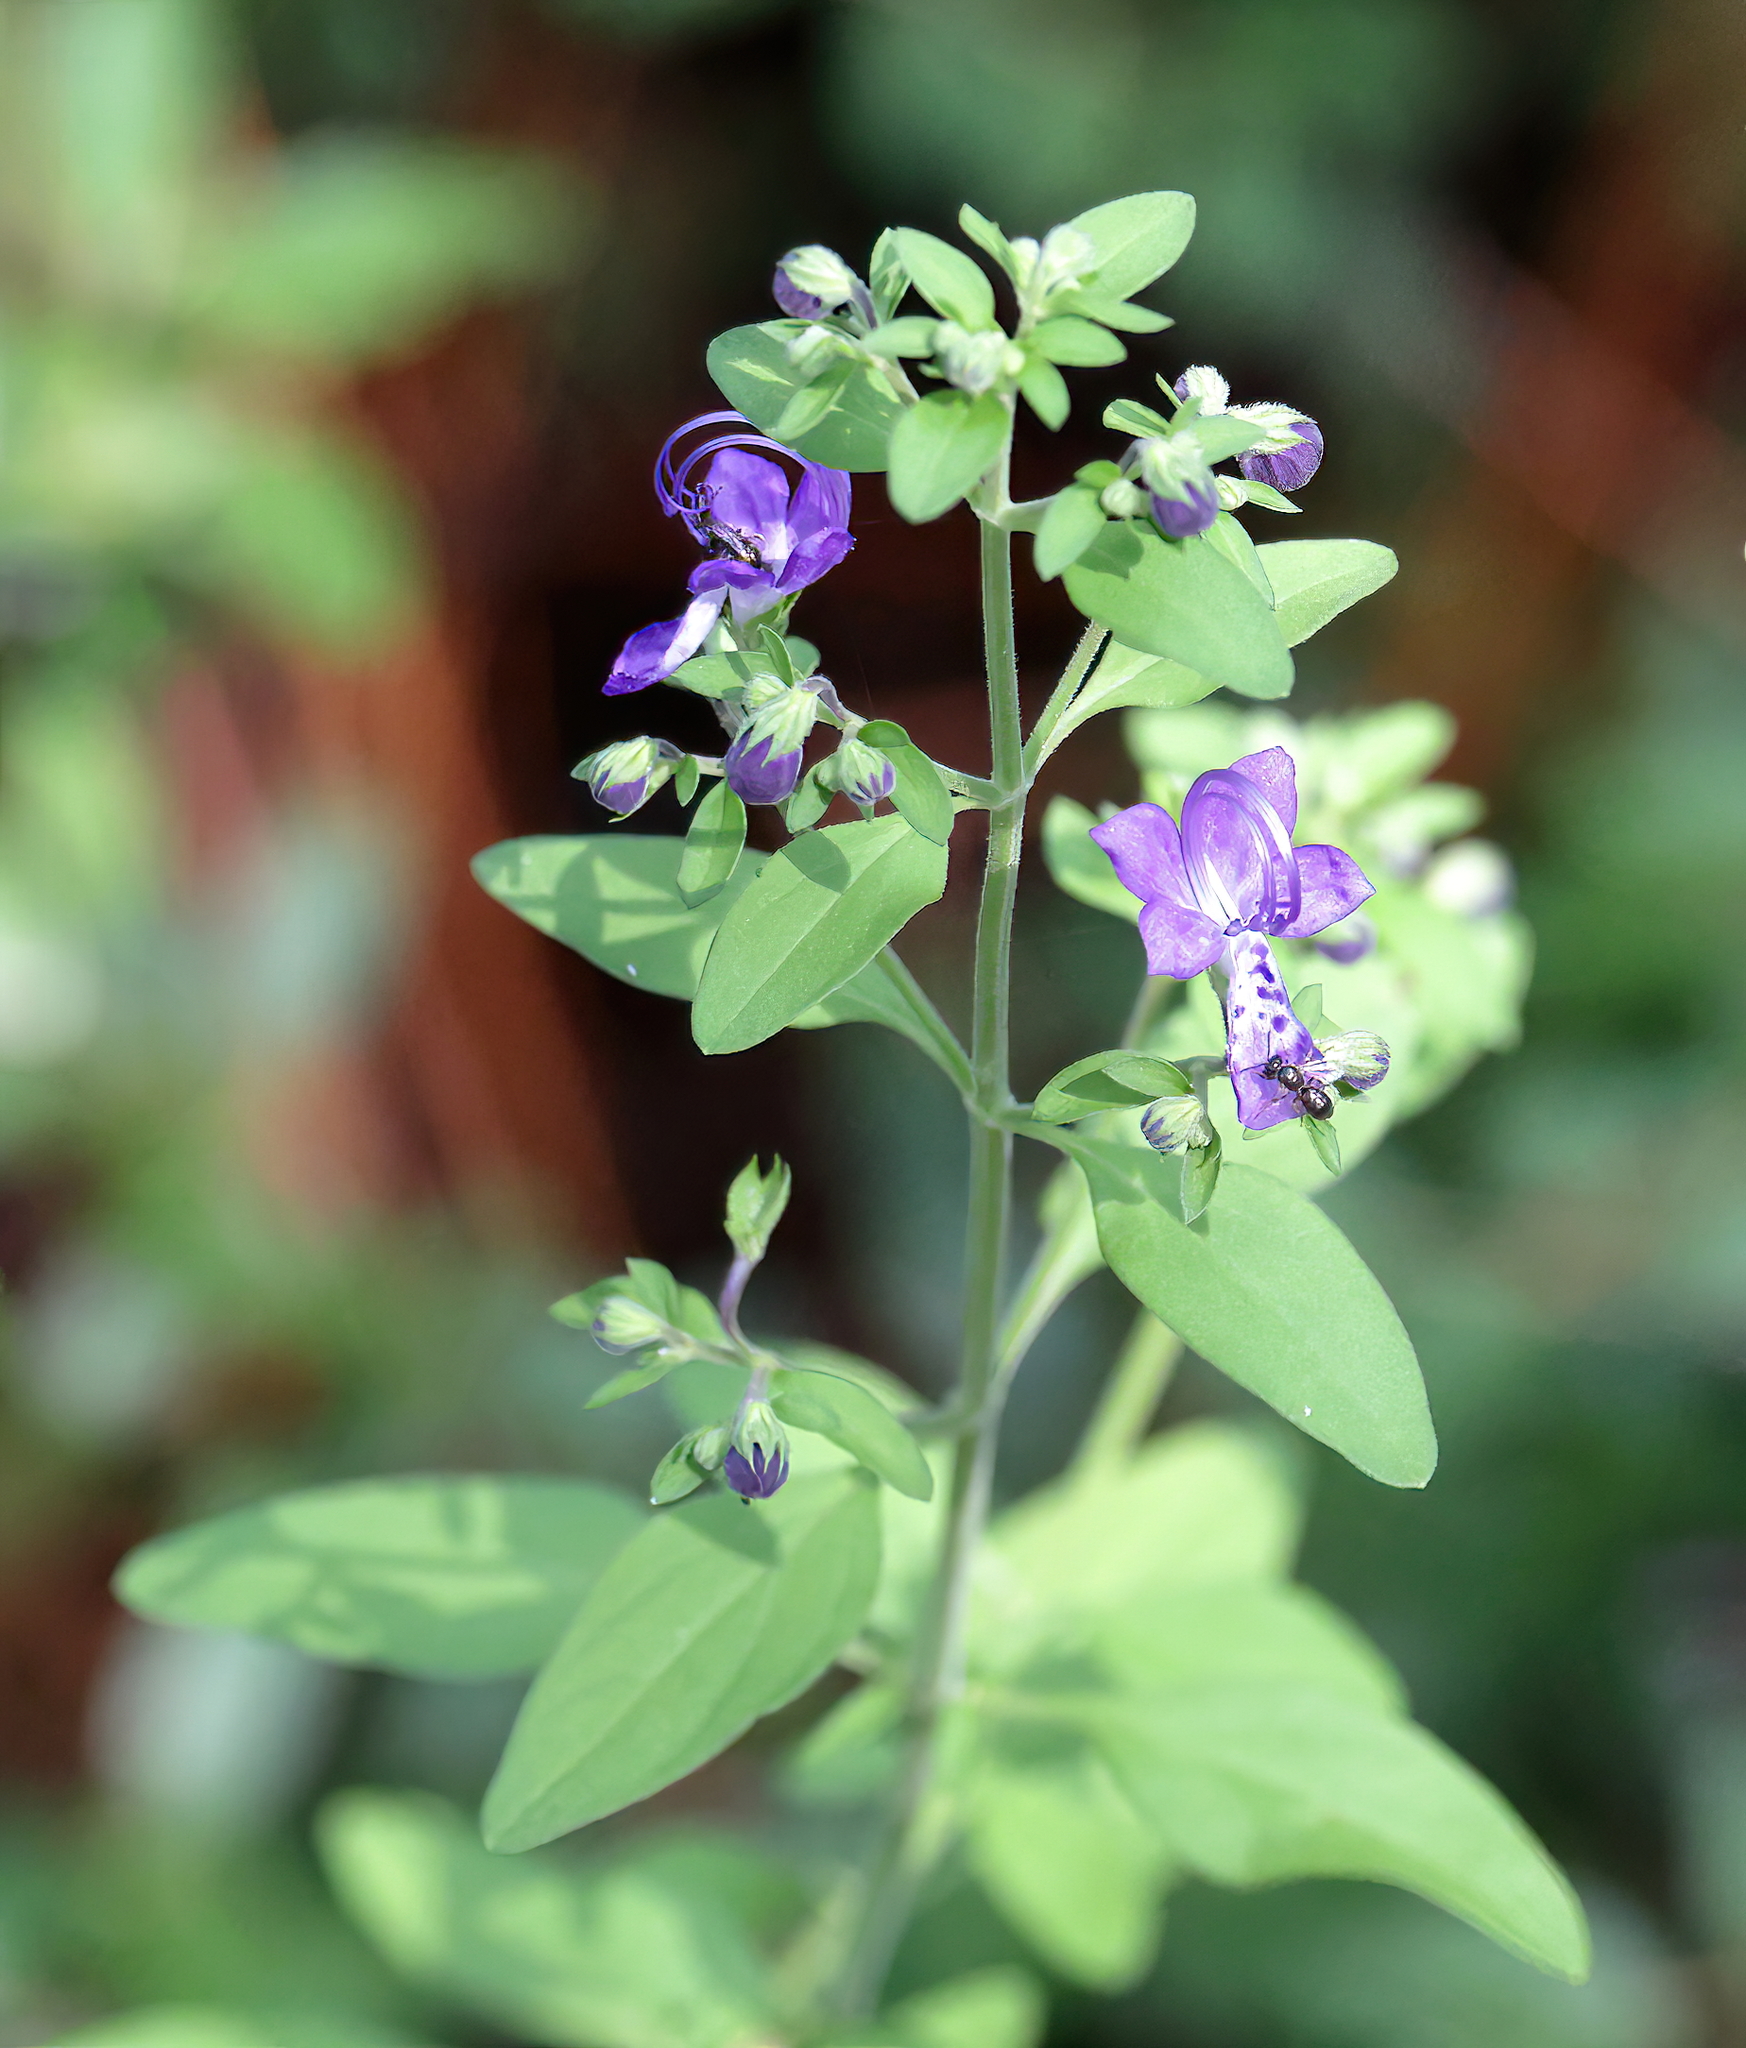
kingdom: Plantae
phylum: Tracheophyta
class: Magnoliopsida
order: Lamiales
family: Lamiaceae
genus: Trichostema
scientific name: Trichostema fruticosum
